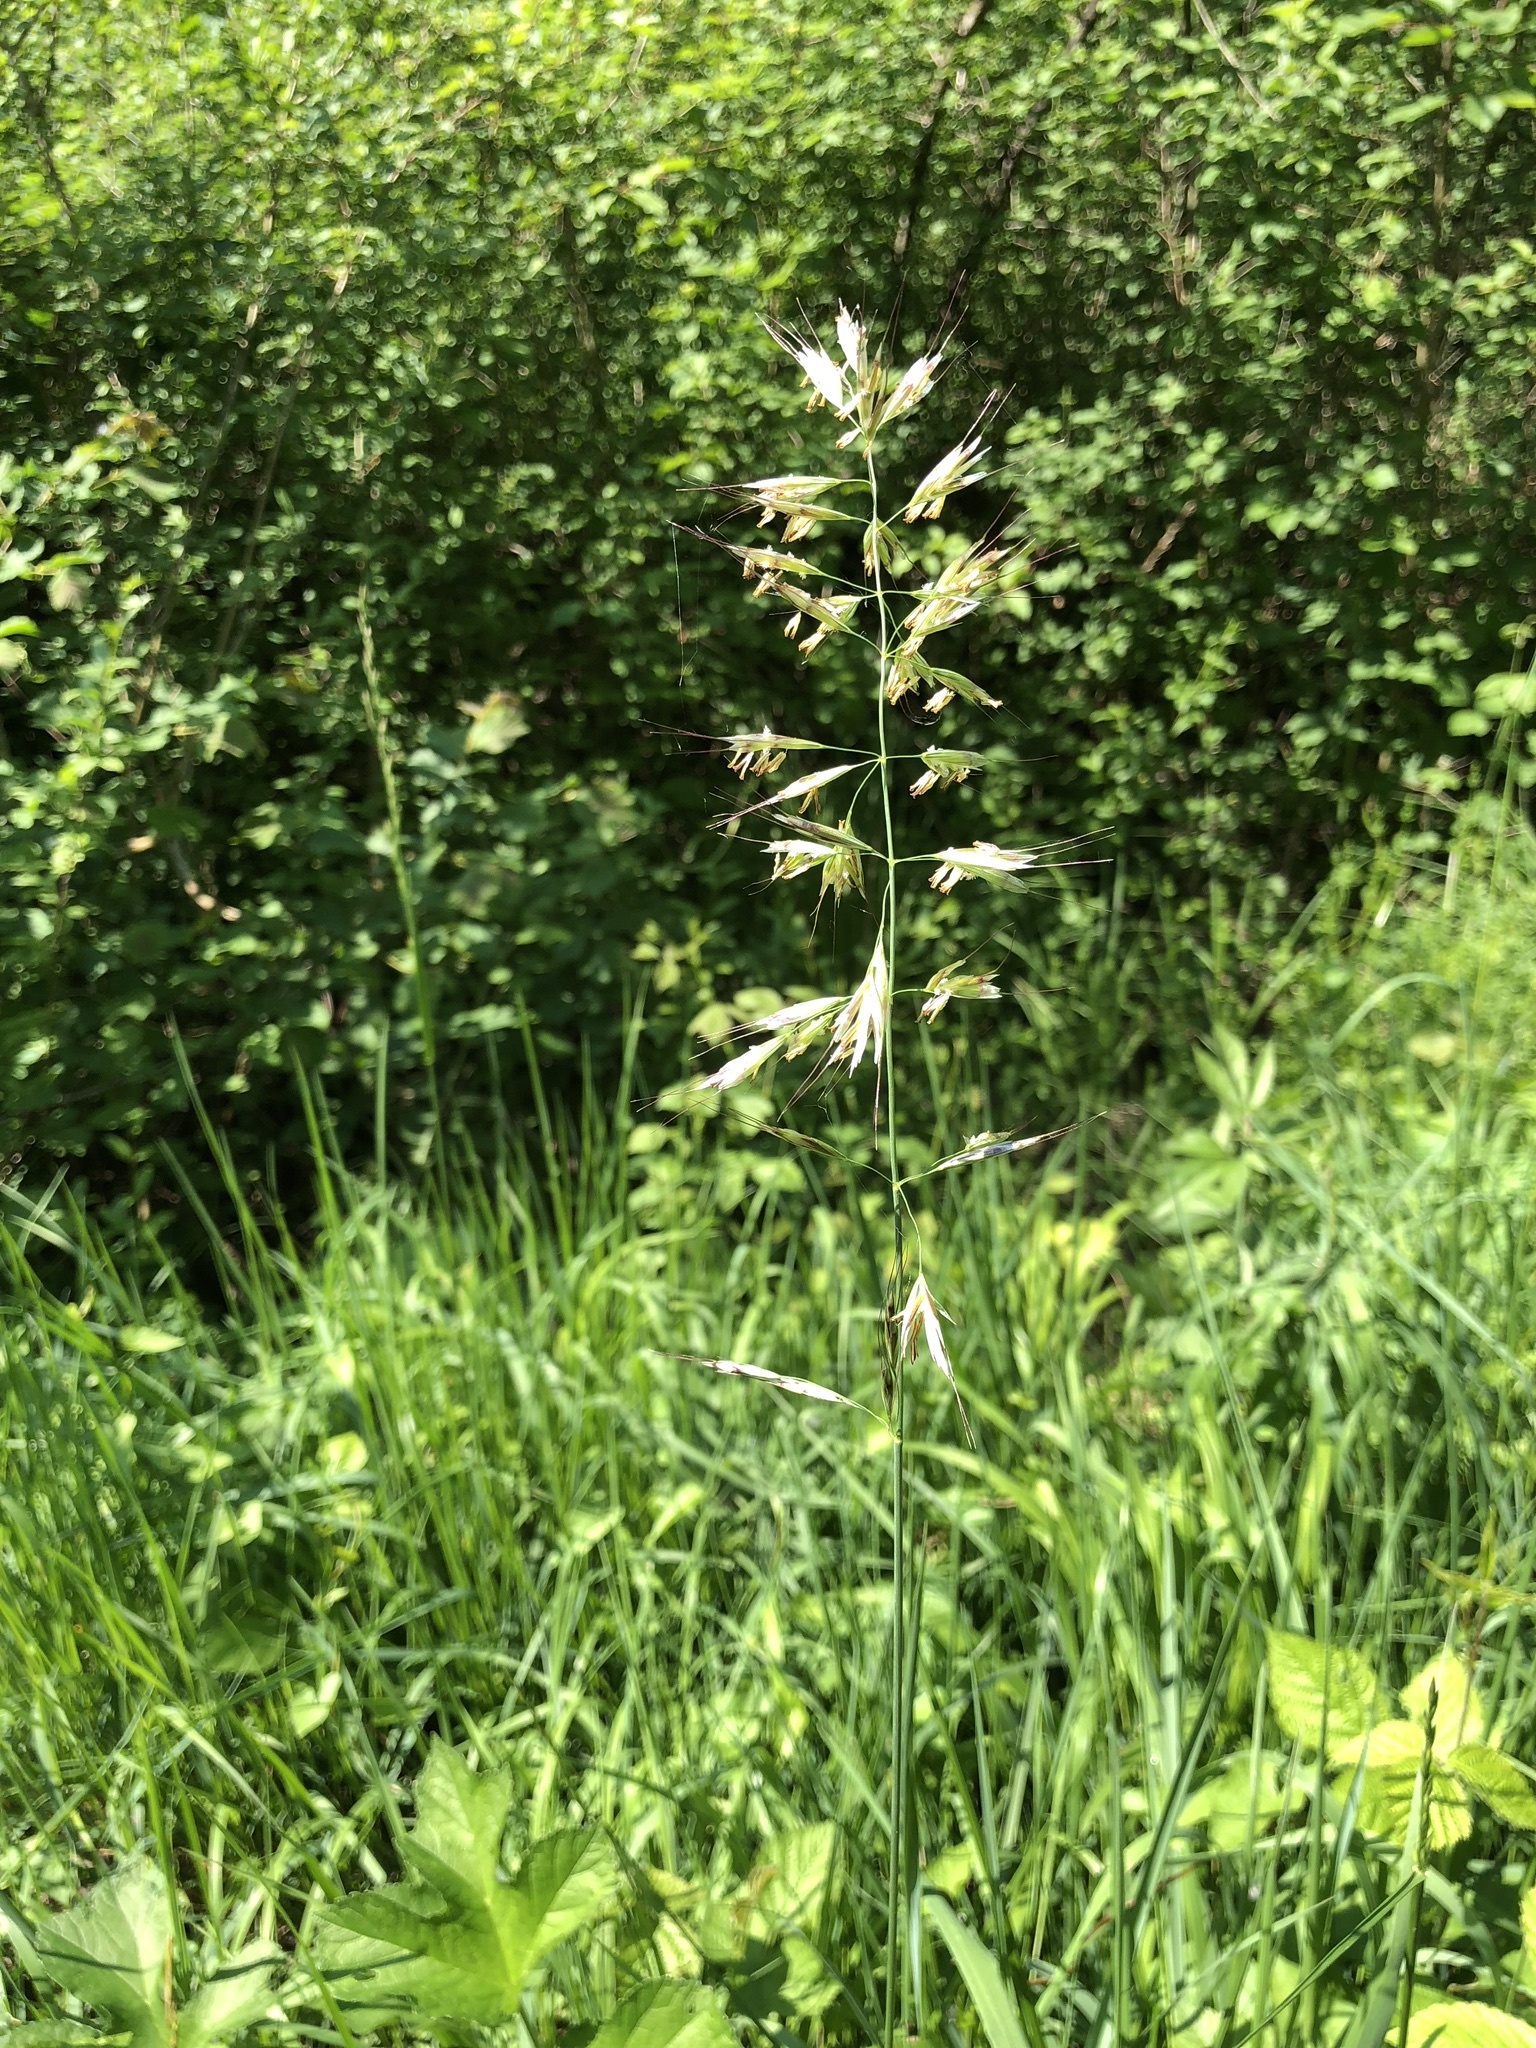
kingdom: Plantae
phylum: Tracheophyta
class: Liliopsida
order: Poales
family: Poaceae
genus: Avenula
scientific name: Avenula pubescens
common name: Downy alpine oatgrass
